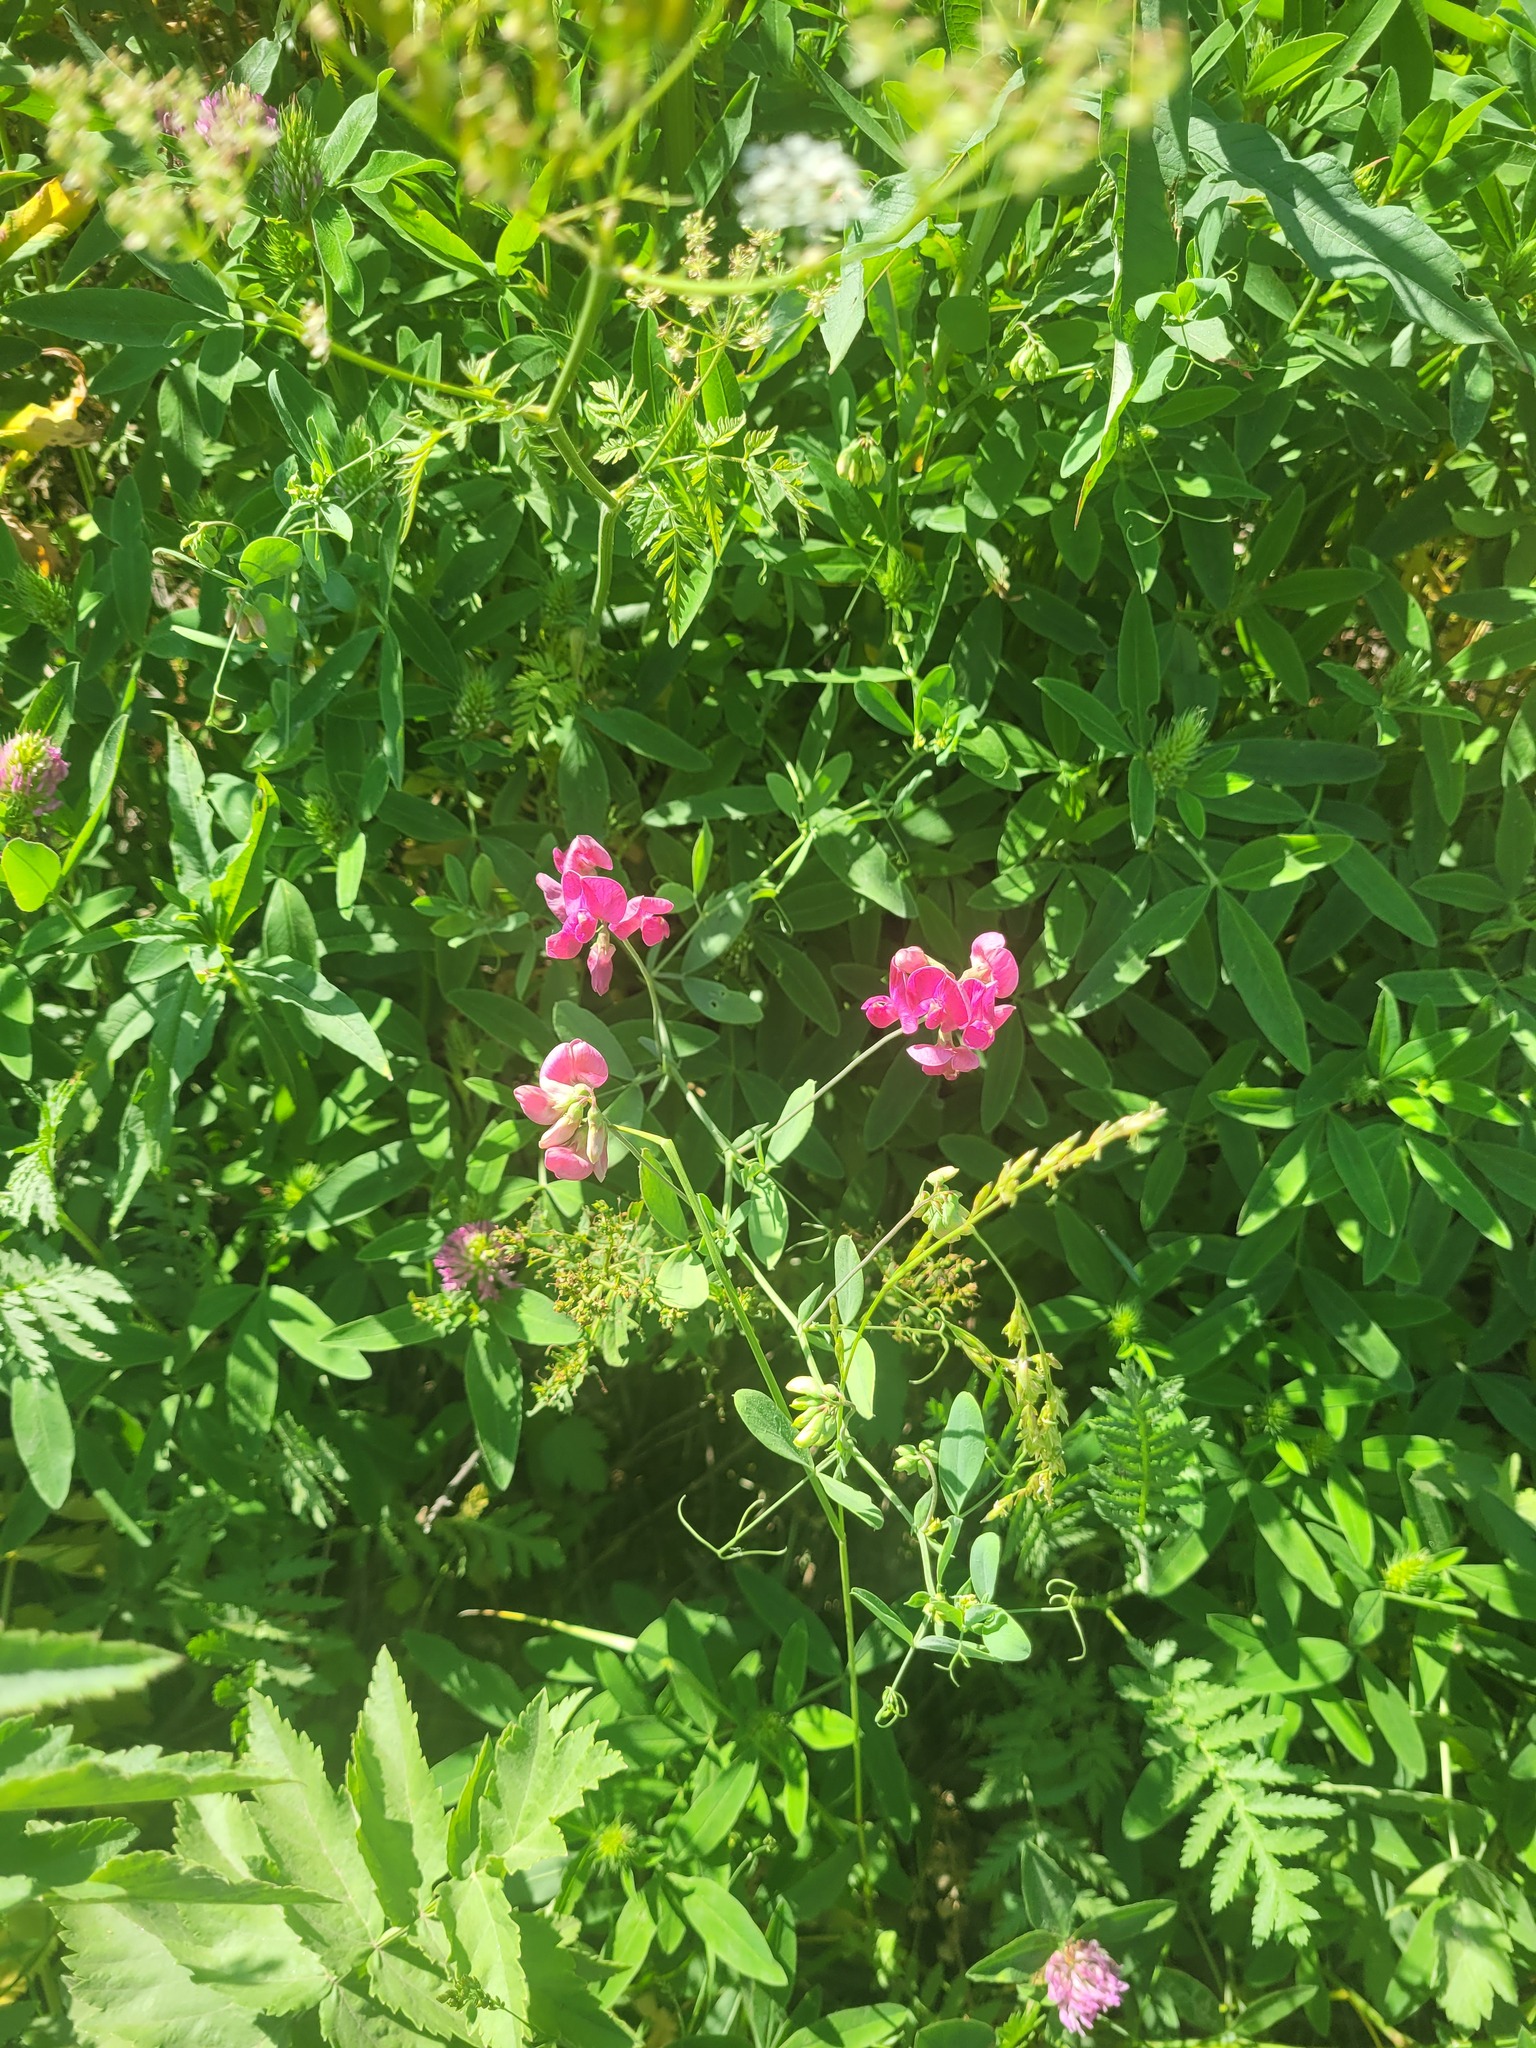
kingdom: Plantae
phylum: Tracheophyta
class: Magnoliopsida
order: Fabales
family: Fabaceae
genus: Lathyrus
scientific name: Lathyrus tuberosus
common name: Tuberous pea
